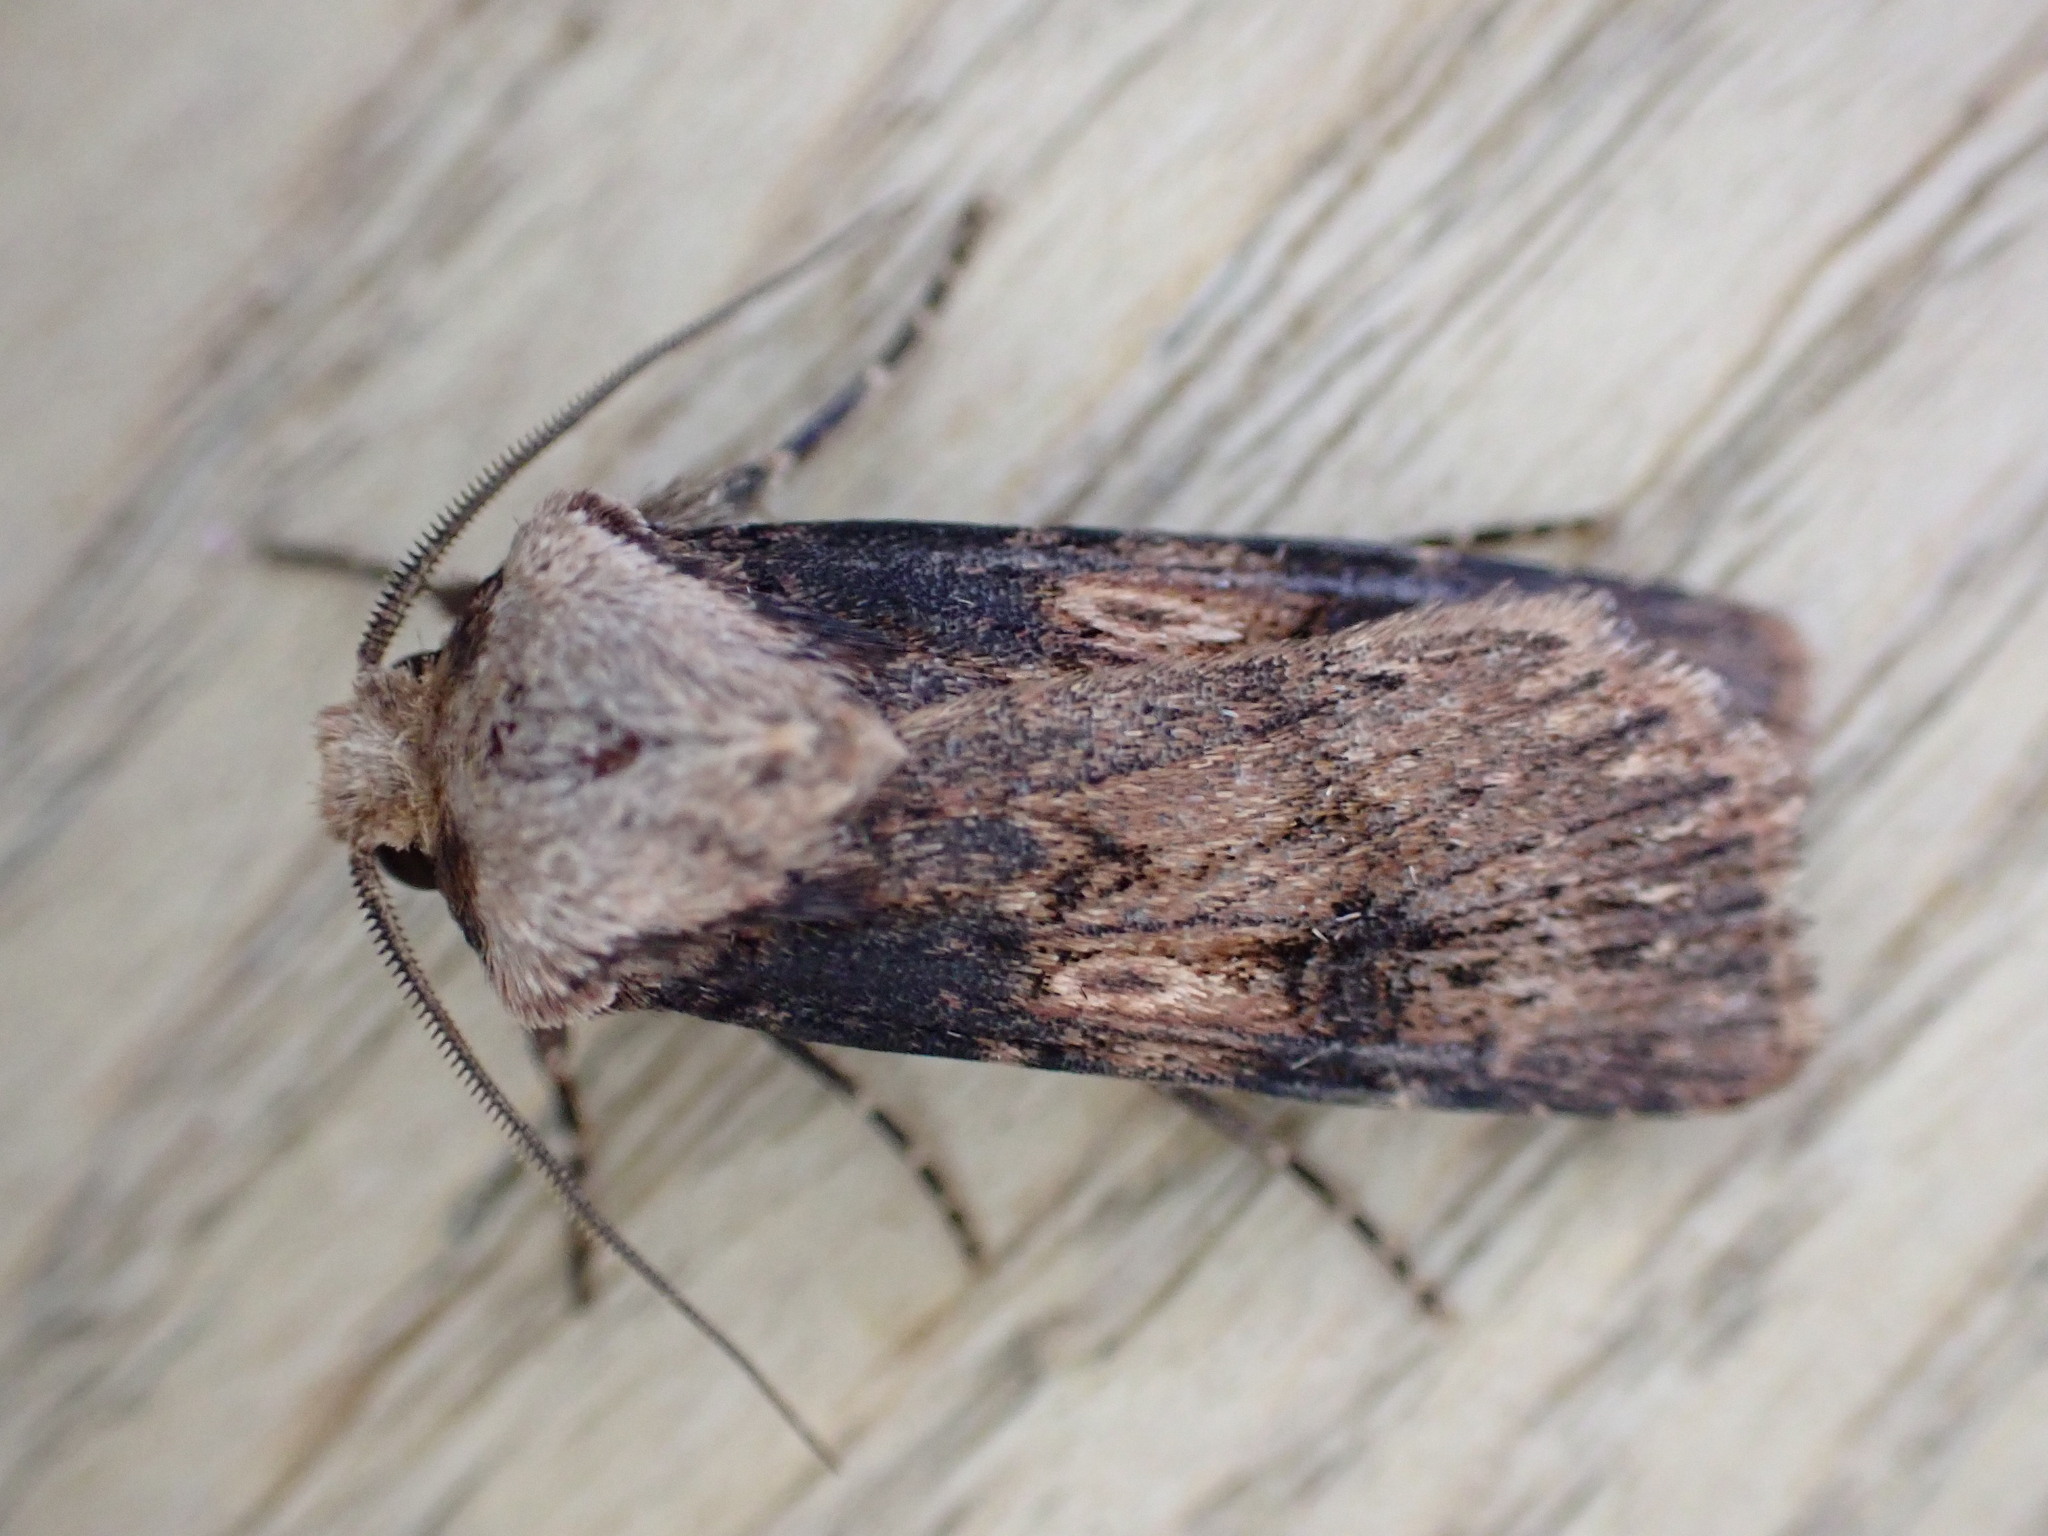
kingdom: Animalia
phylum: Arthropoda
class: Insecta
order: Lepidoptera
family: Noctuidae
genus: Agrotis
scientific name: Agrotis puta
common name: Shuttle-shaped dart
